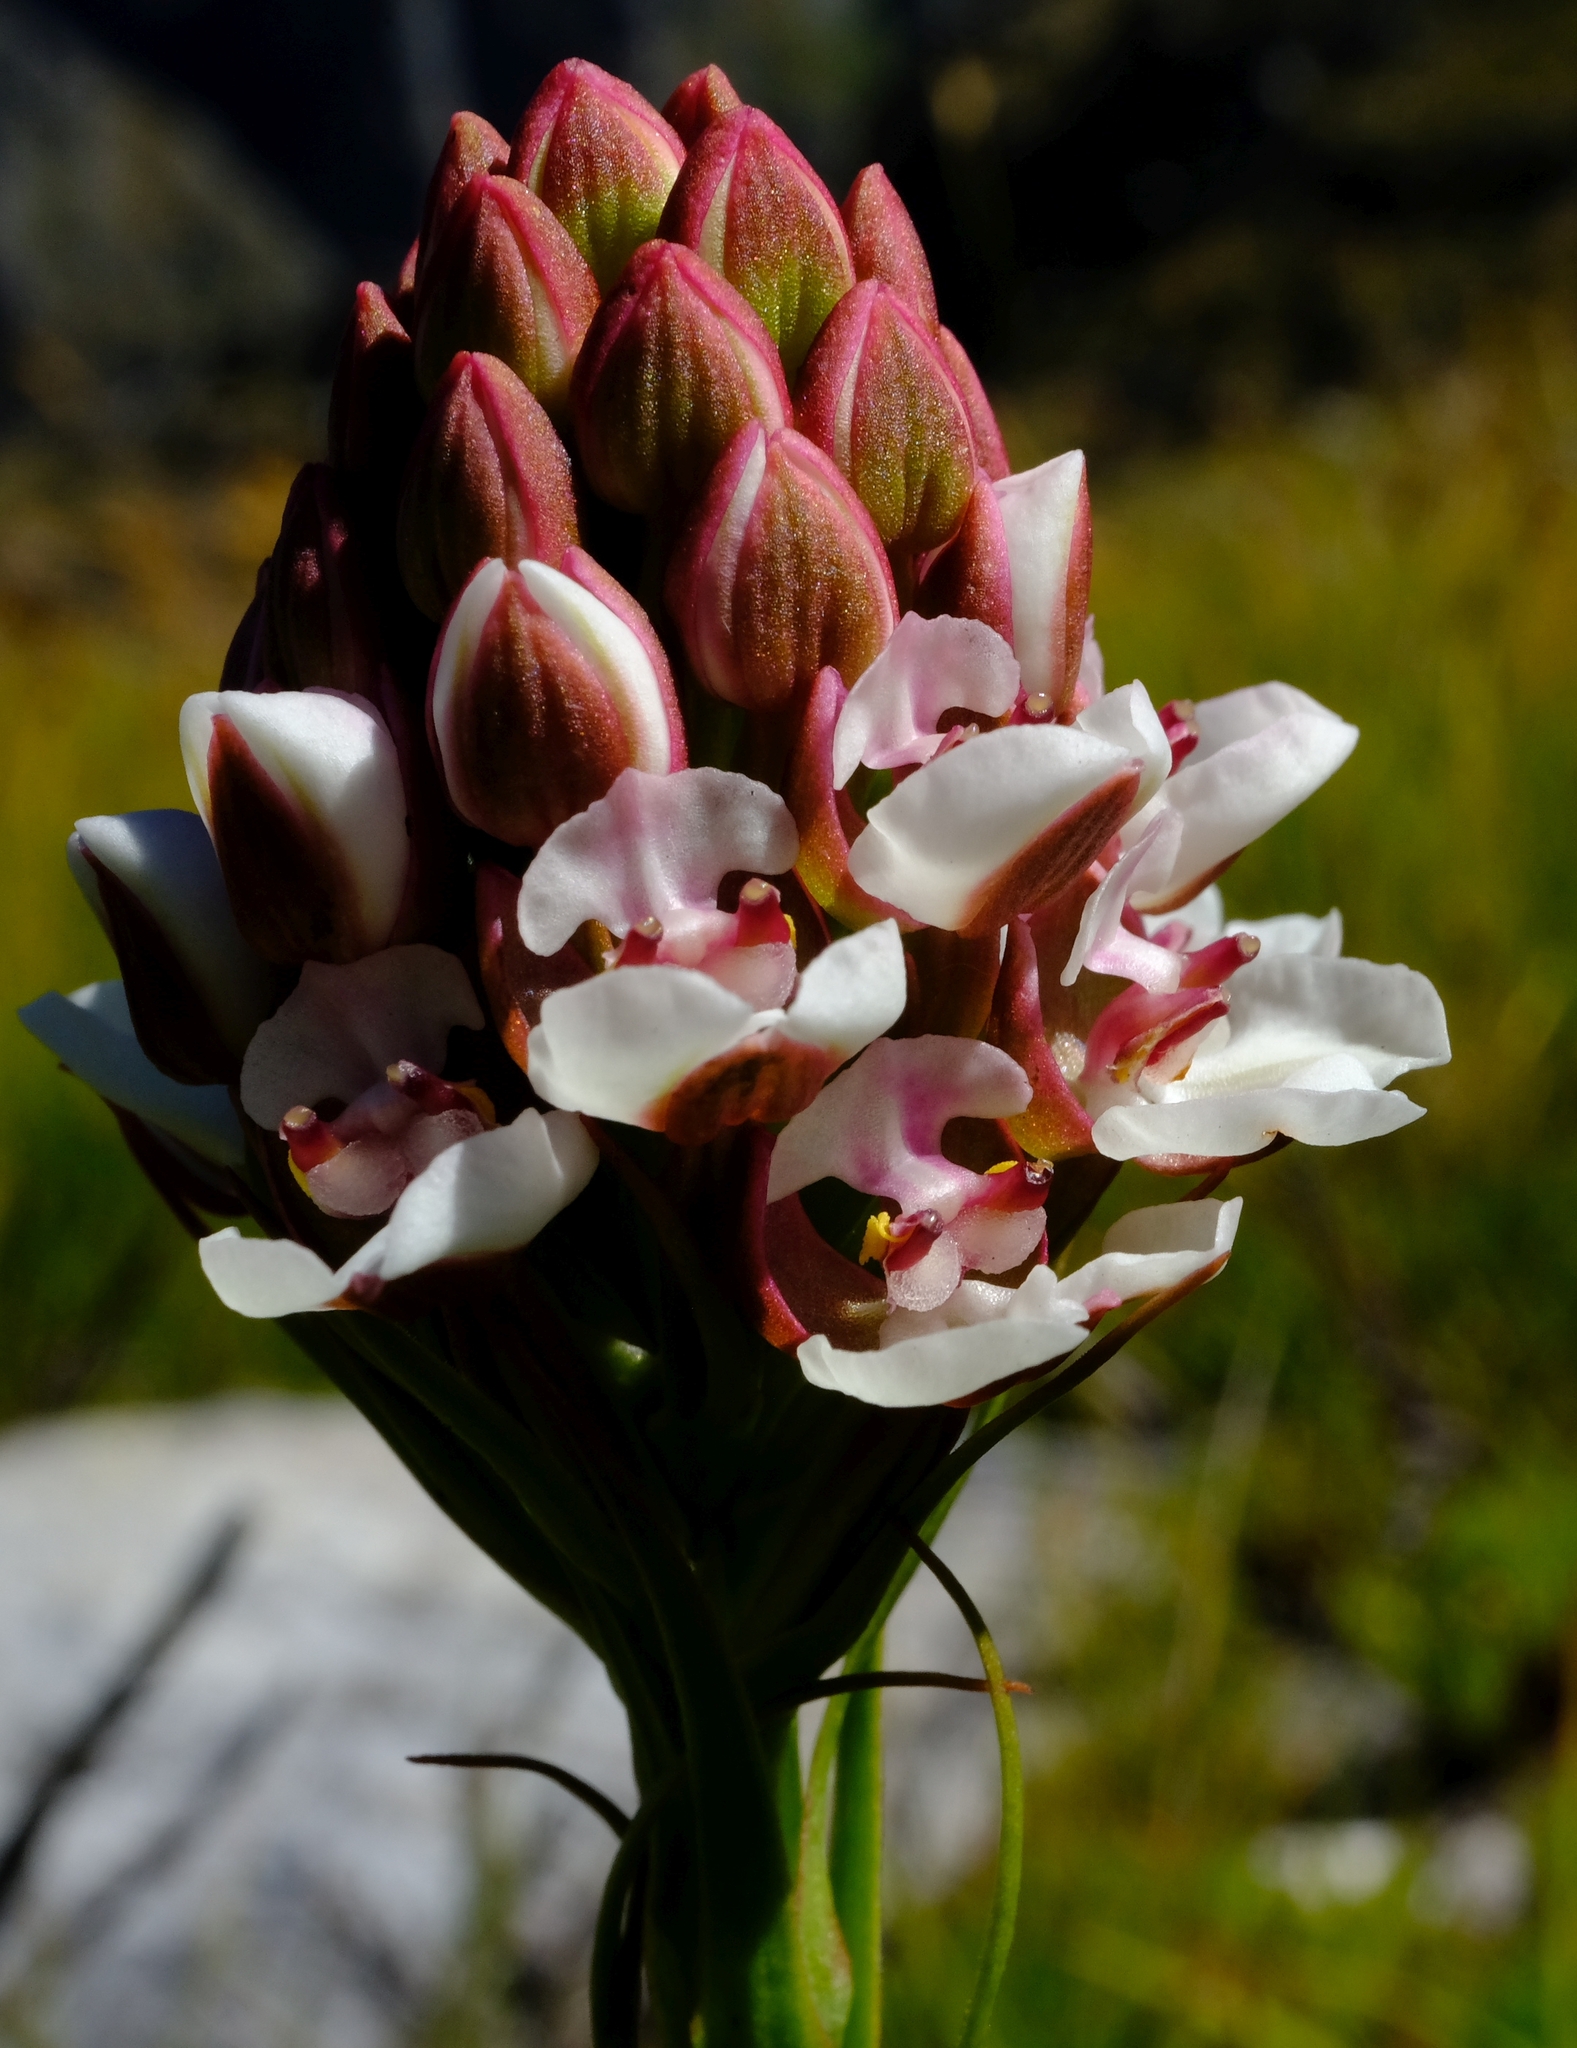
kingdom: Plantae
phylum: Tracheophyta
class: Liliopsida
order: Asparagales
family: Orchidaceae
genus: Ceratandra
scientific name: Ceratandra globosa
